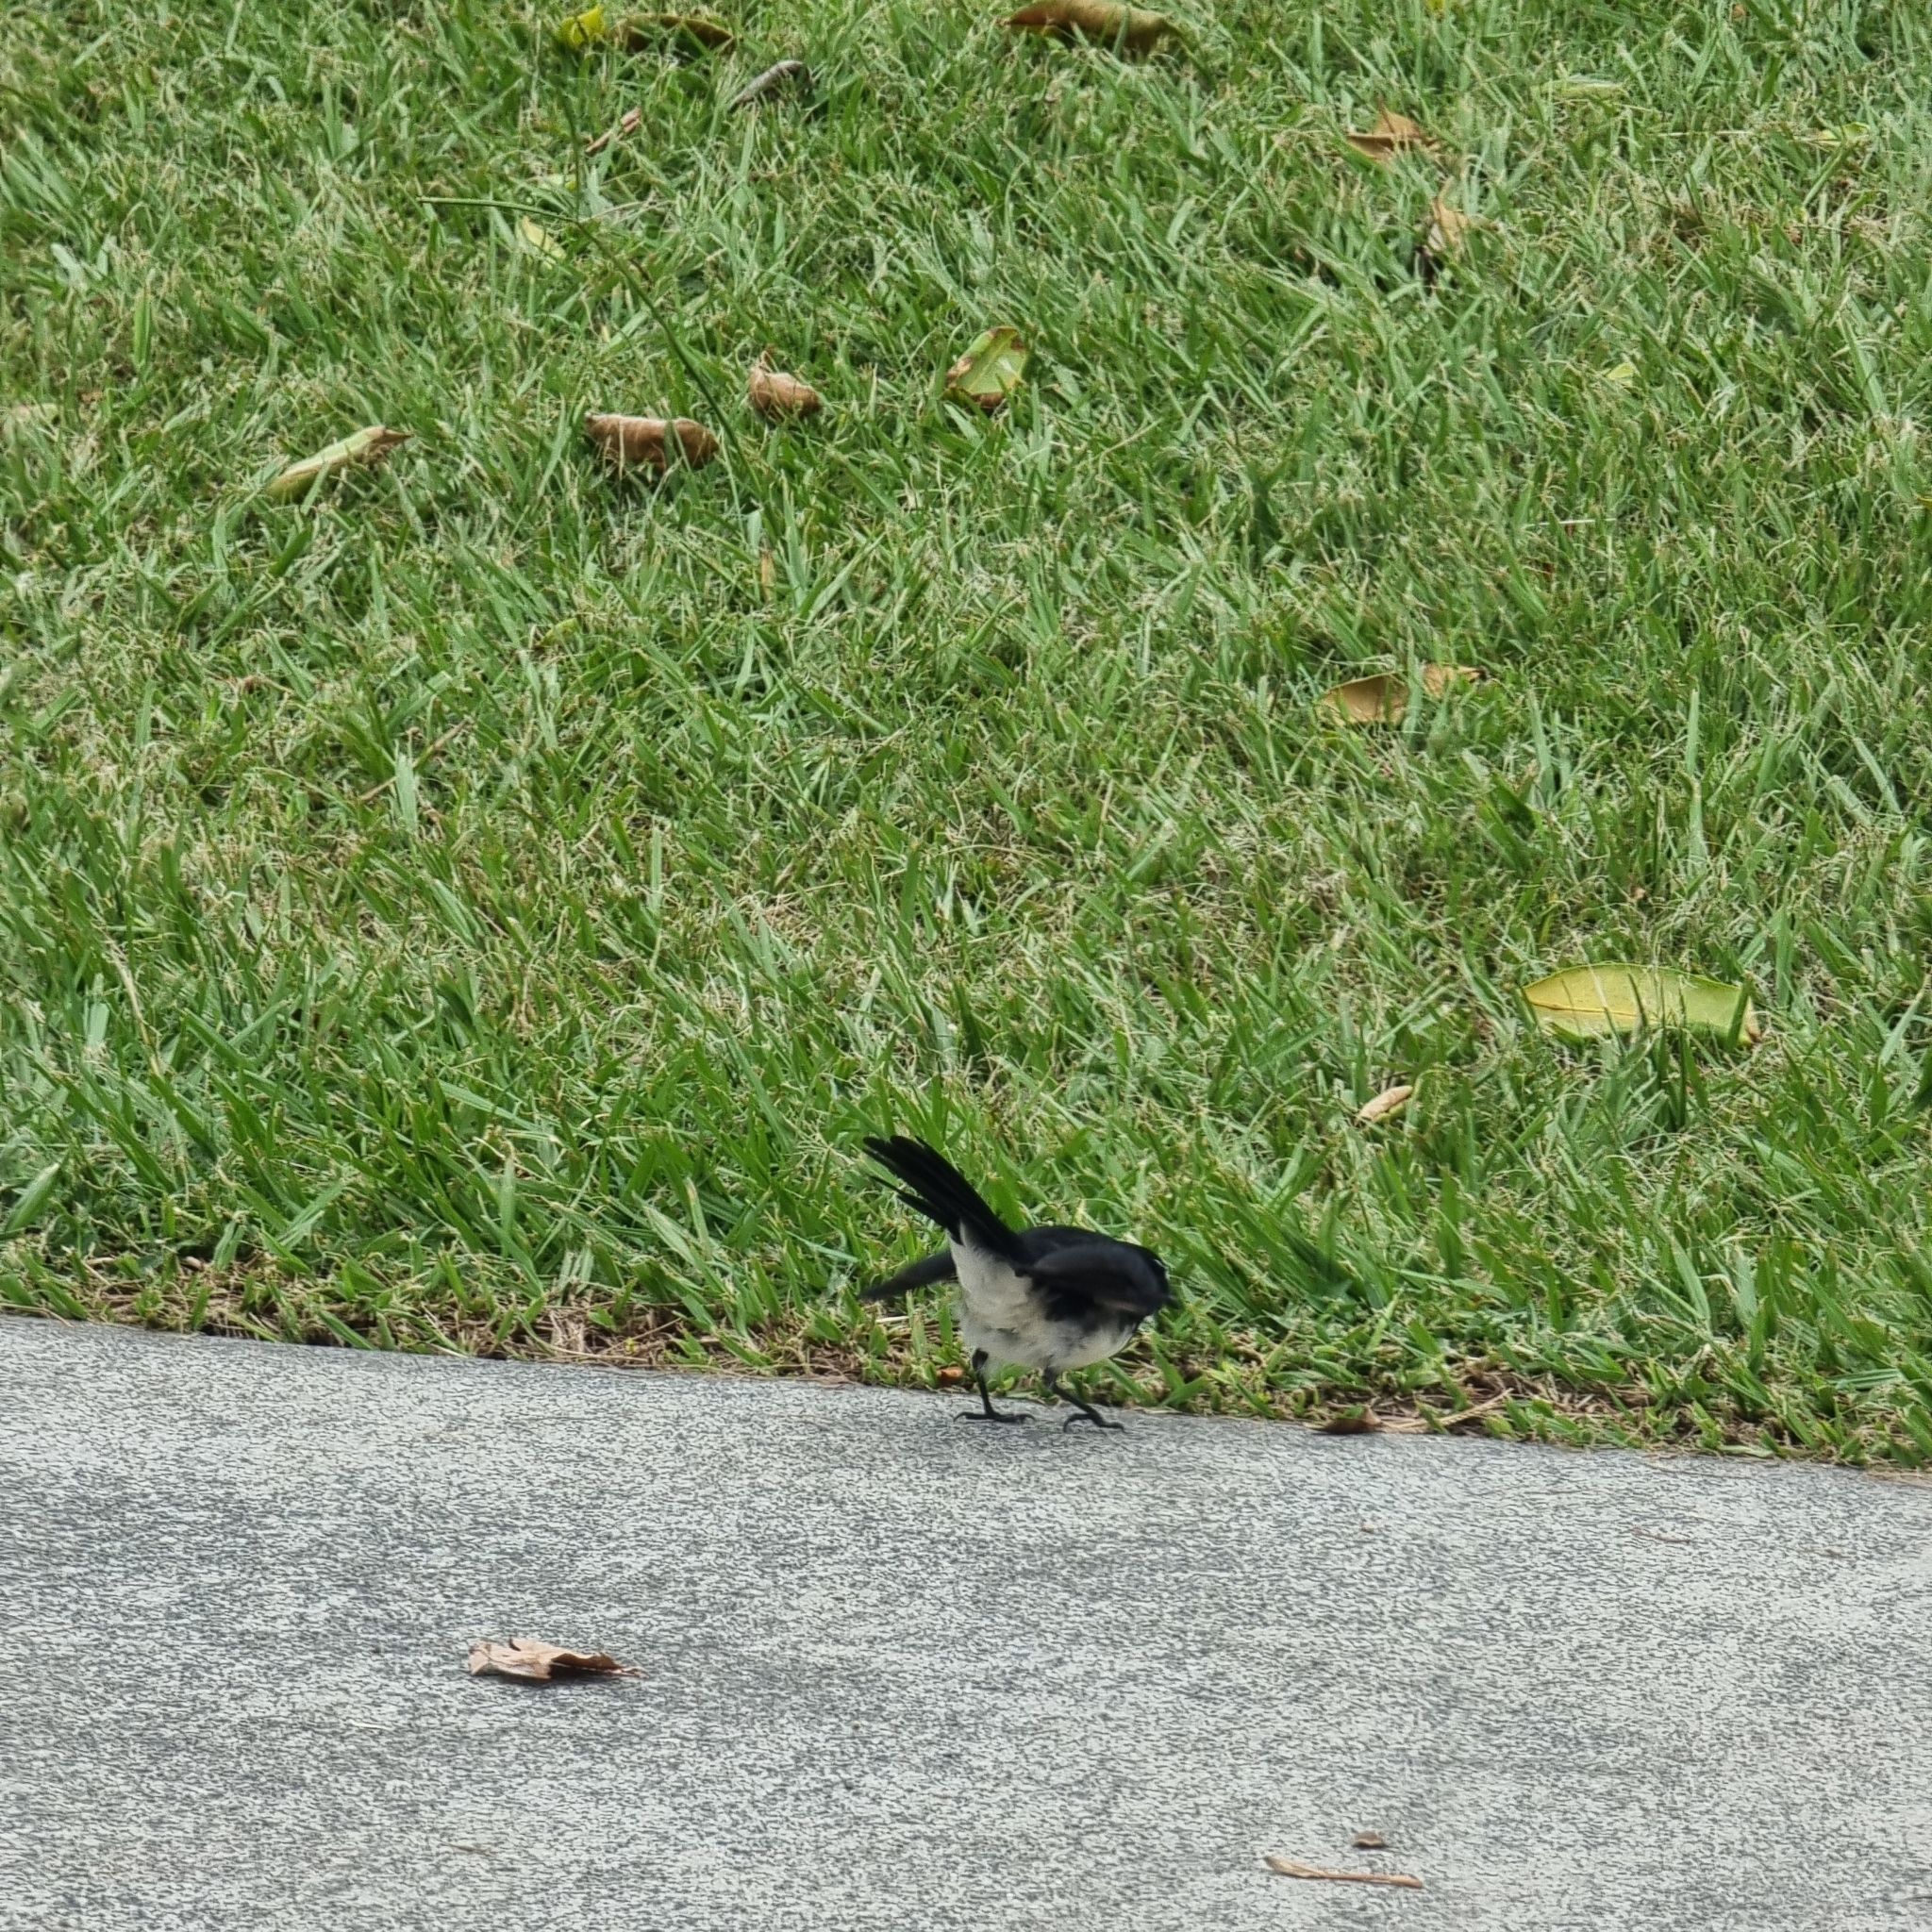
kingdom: Animalia
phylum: Chordata
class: Aves
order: Passeriformes
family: Rhipiduridae
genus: Rhipidura
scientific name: Rhipidura leucophrys
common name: Willie wagtail
